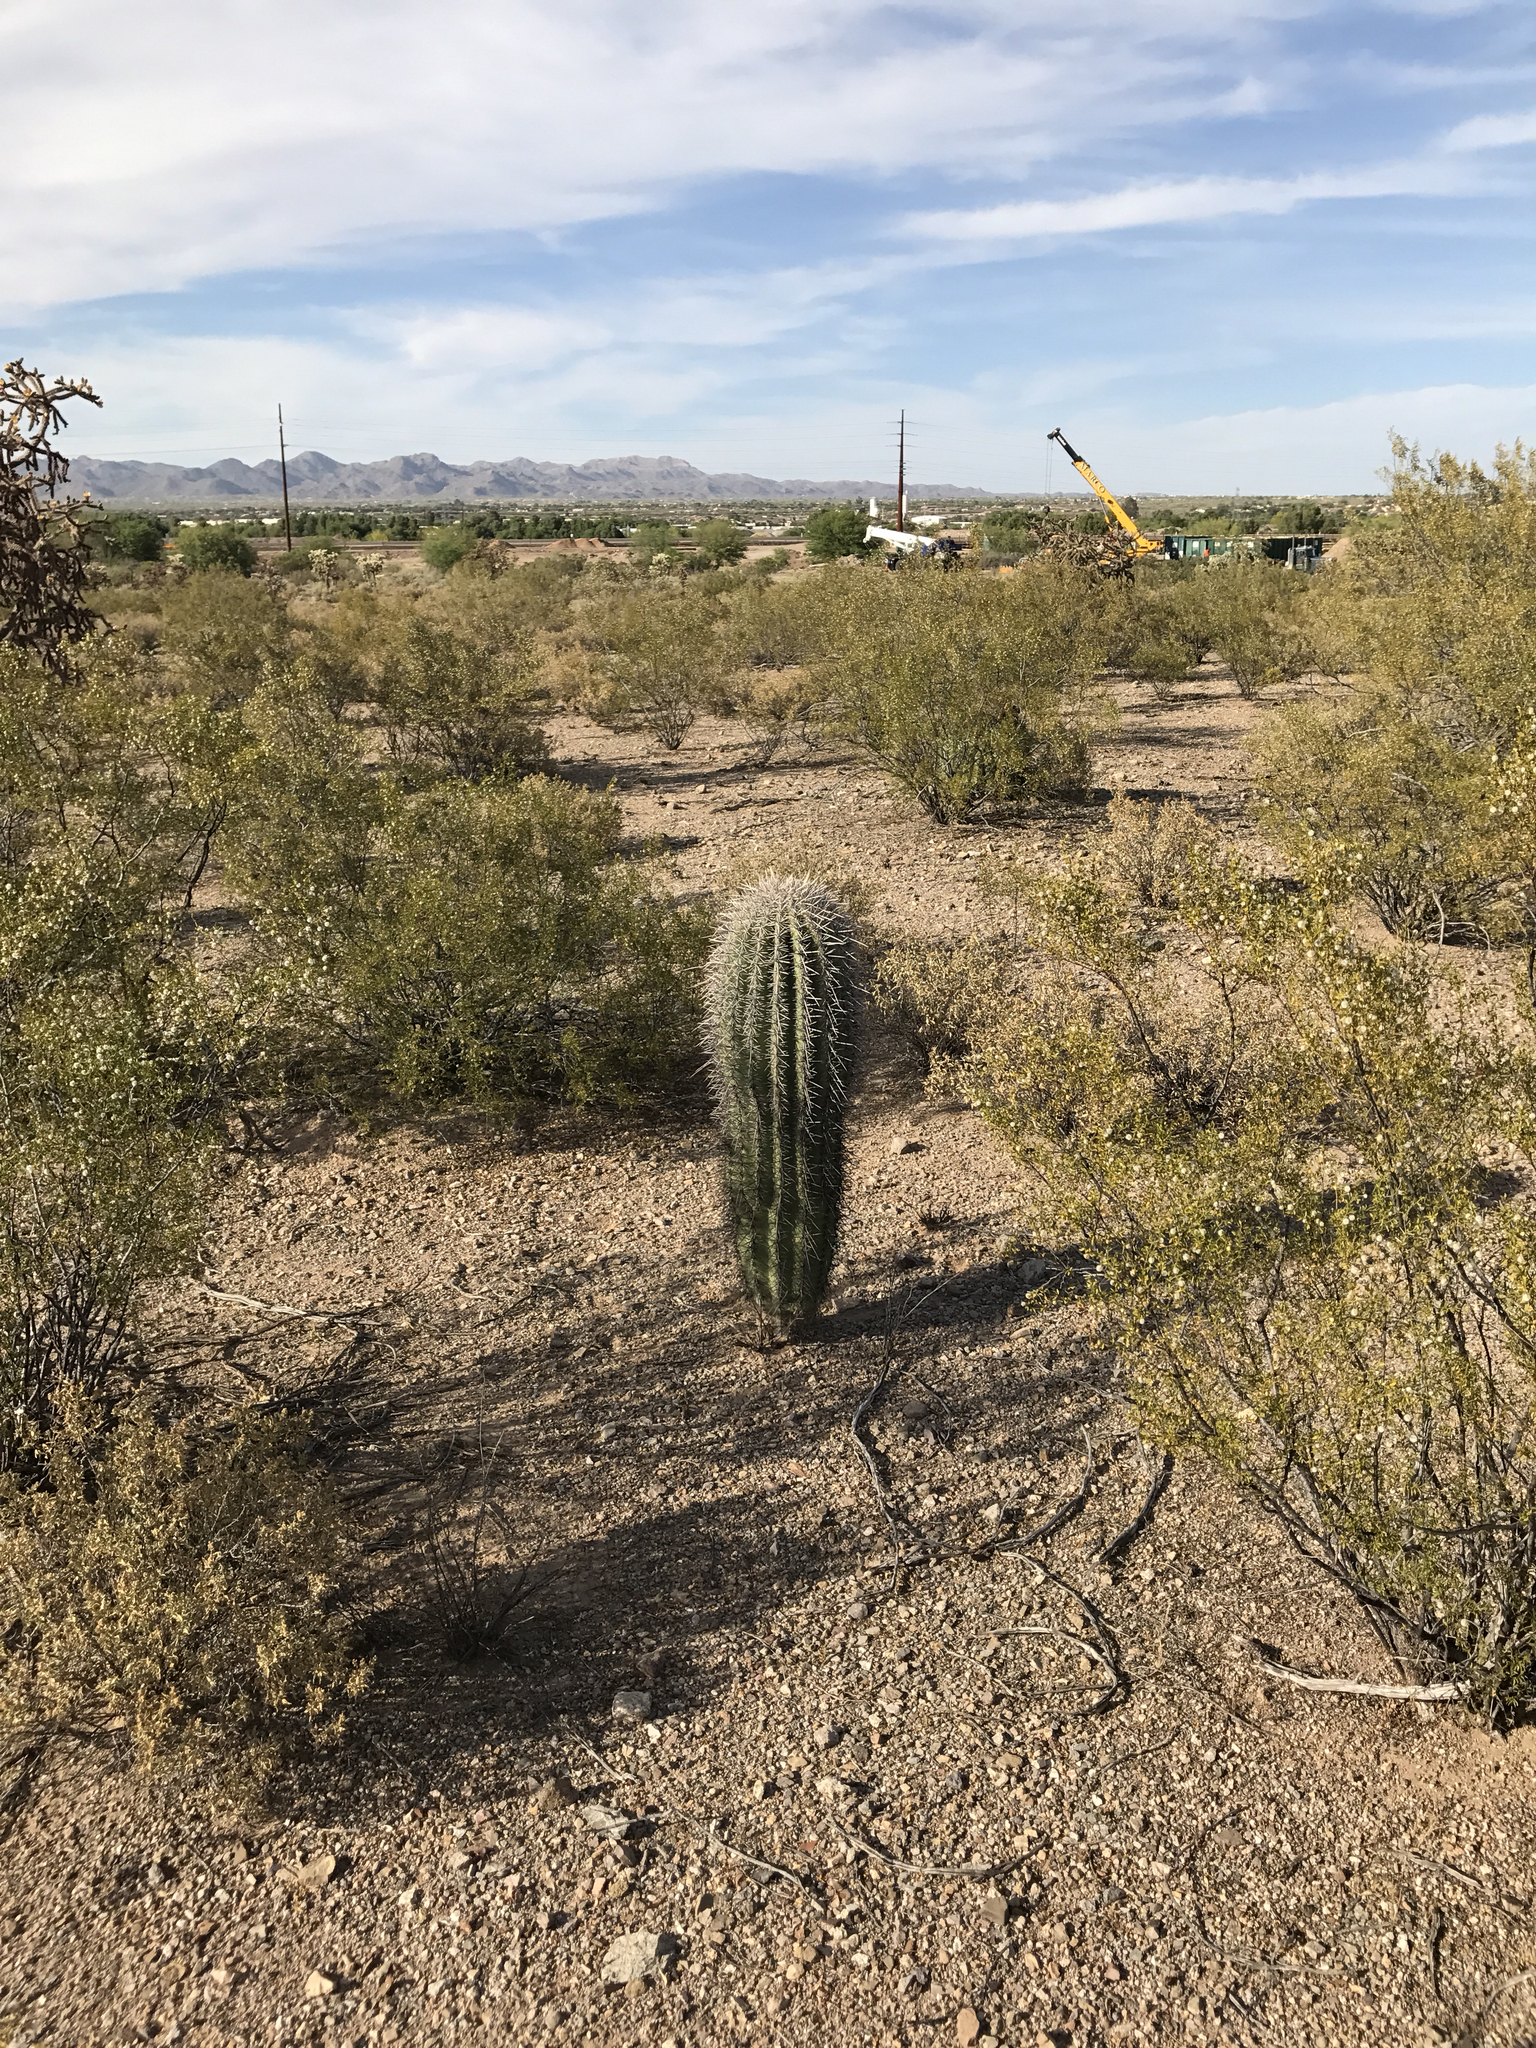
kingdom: Plantae
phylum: Tracheophyta
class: Magnoliopsida
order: Caryophyllales
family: Cactaceae
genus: Carnegiea
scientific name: Carnegiea gigantea
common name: Saguaro
